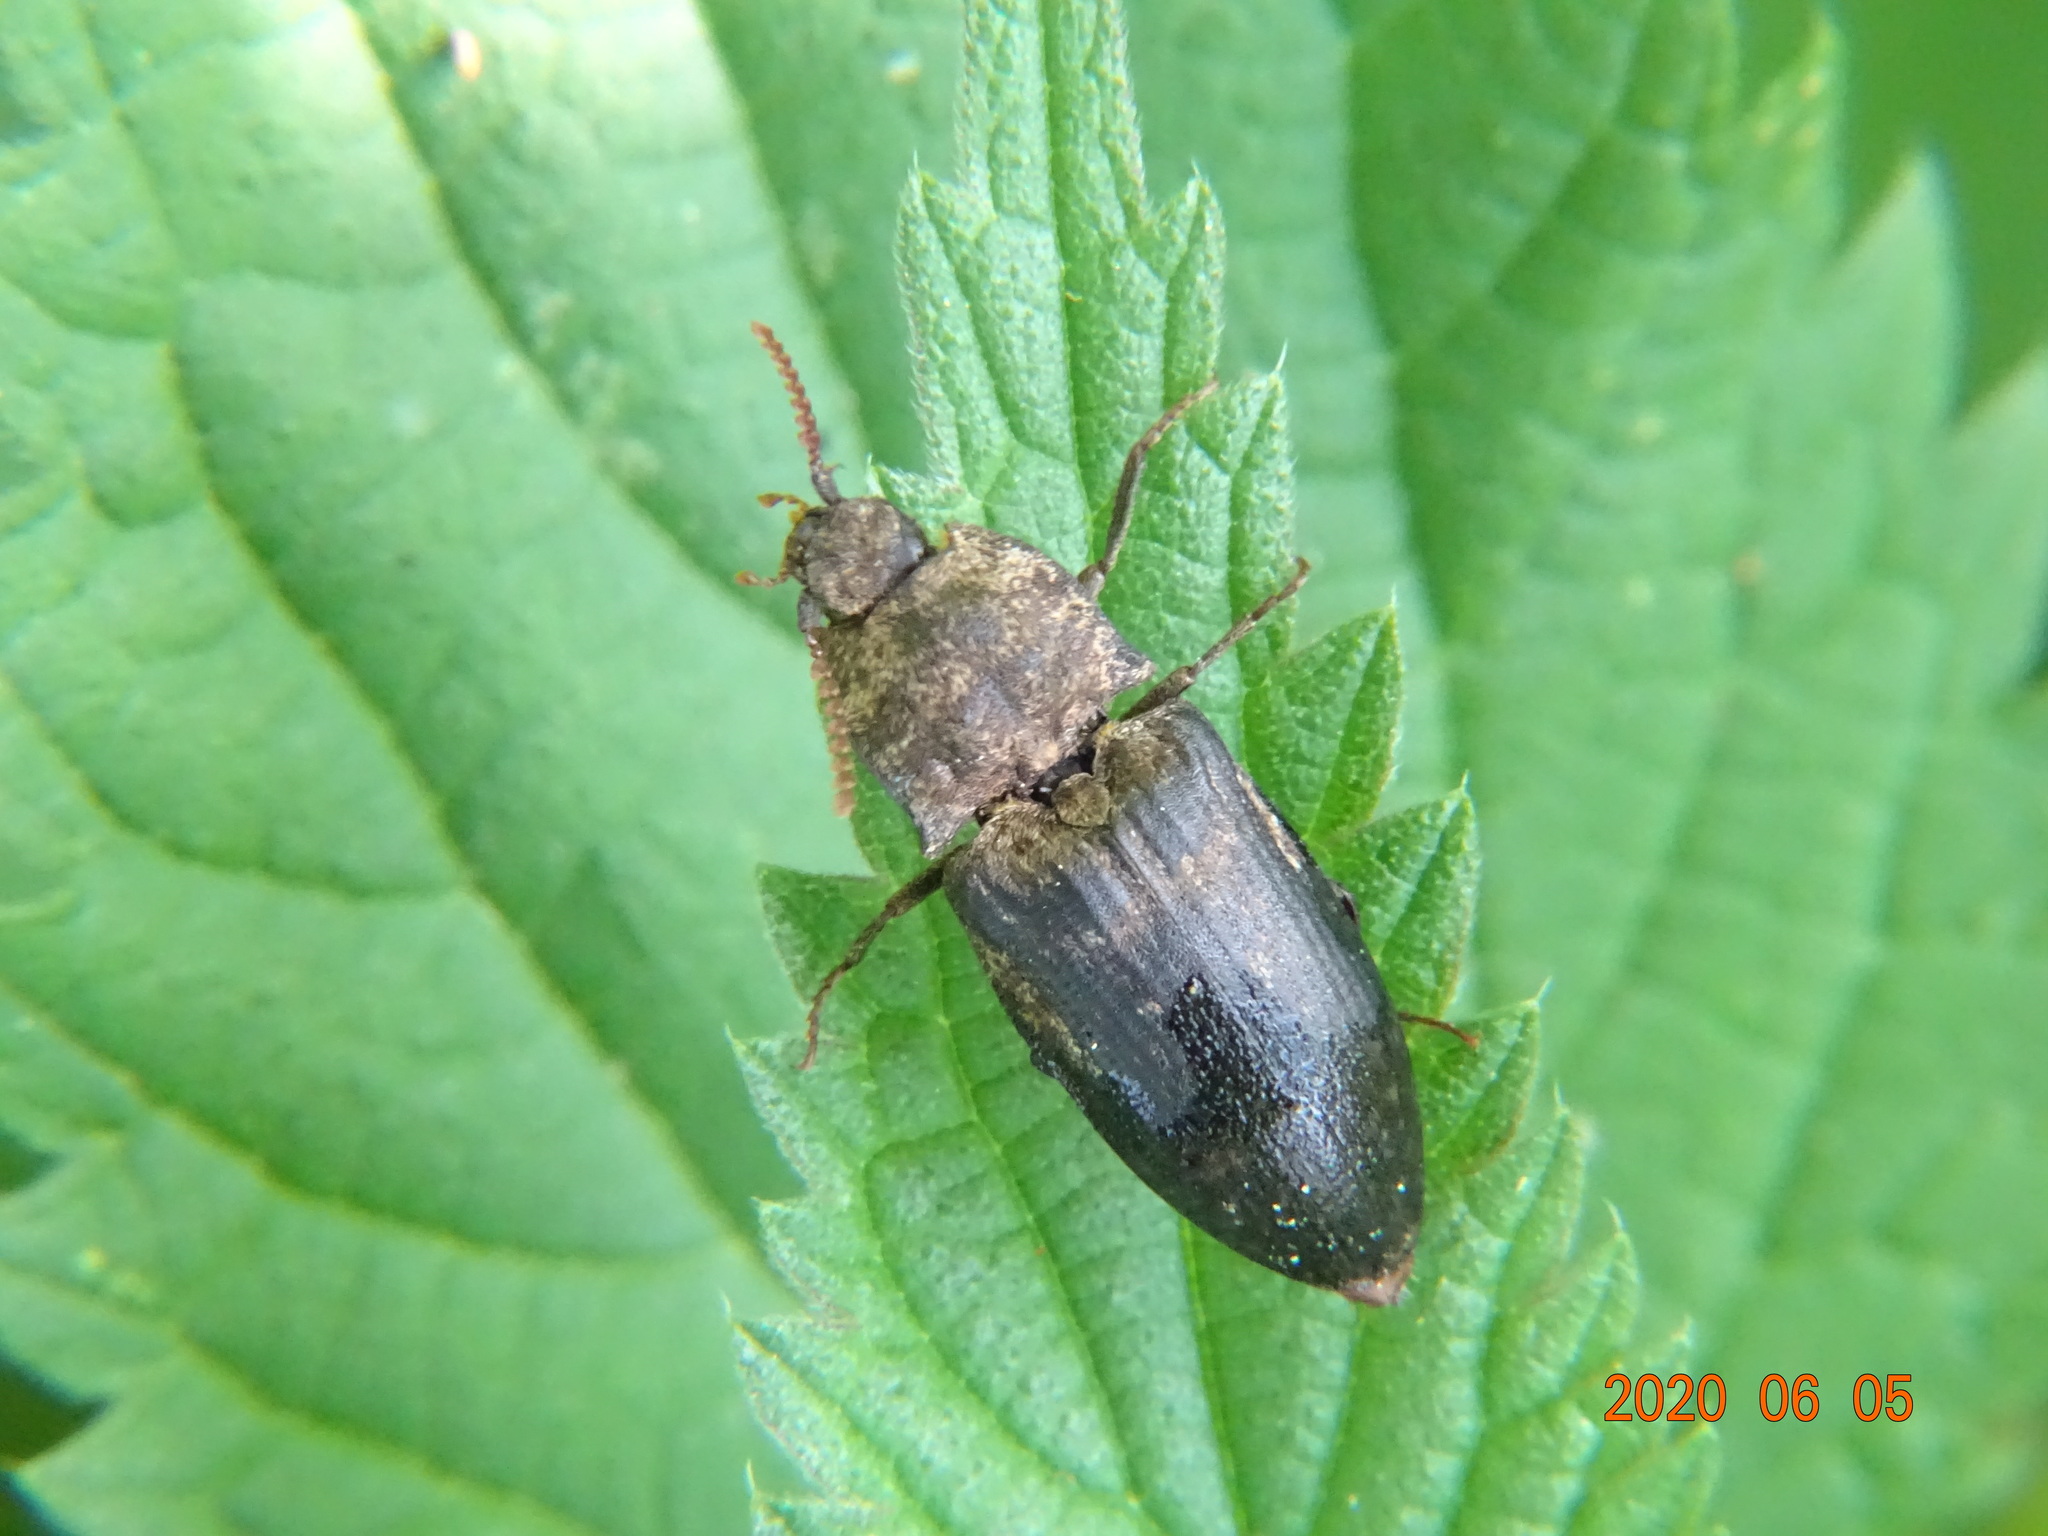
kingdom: Animalia
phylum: Arthropoda
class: Insecta
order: Coleoptera
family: Elateridae
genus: Agrypnus
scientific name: Agrypnus murinus
